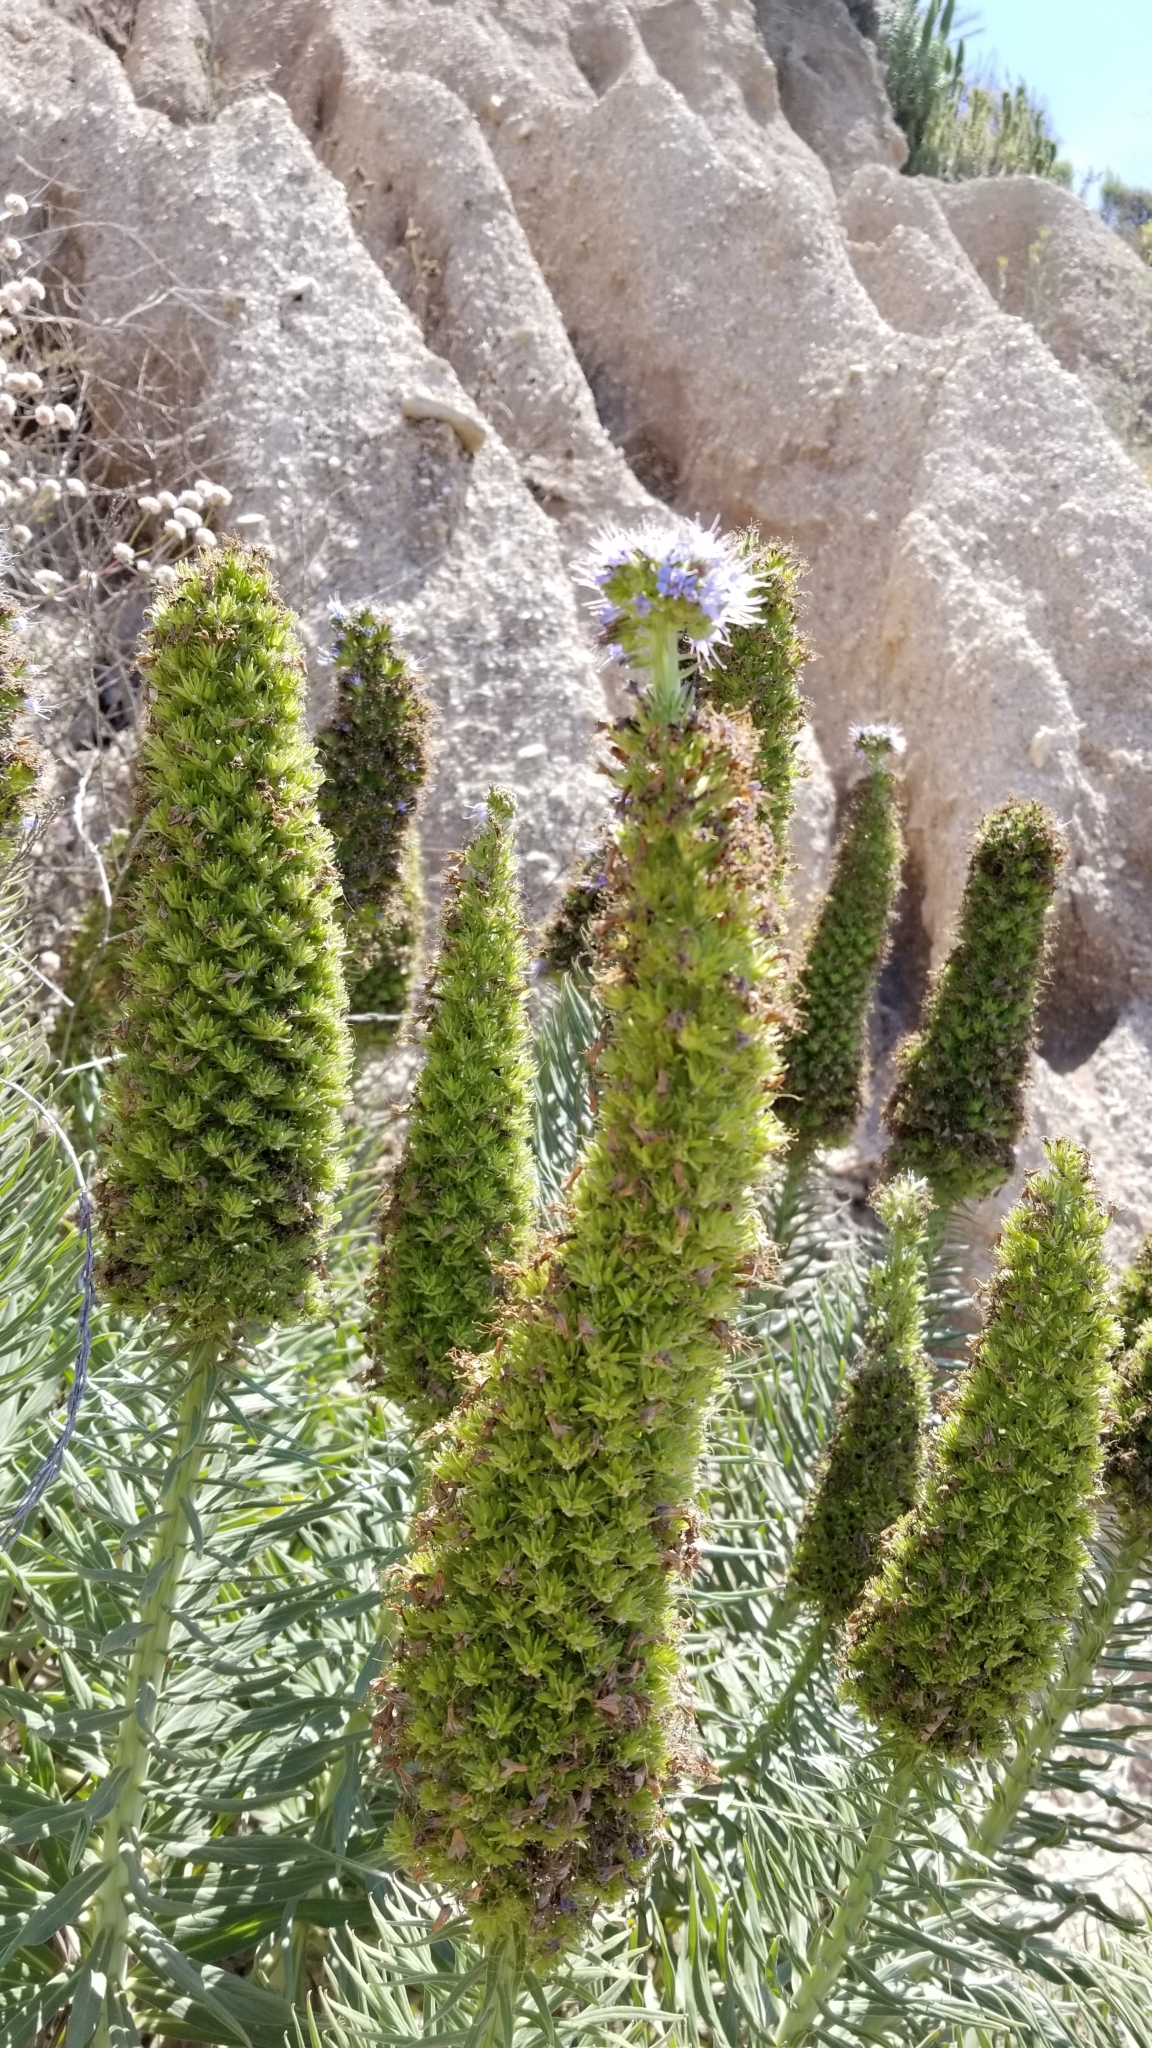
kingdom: Plantae
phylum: Tracheophyta
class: Magnoliopsida
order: Boraginales
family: Boraginaceae
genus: Echium
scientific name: Echium candicans
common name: Pride of madeira
